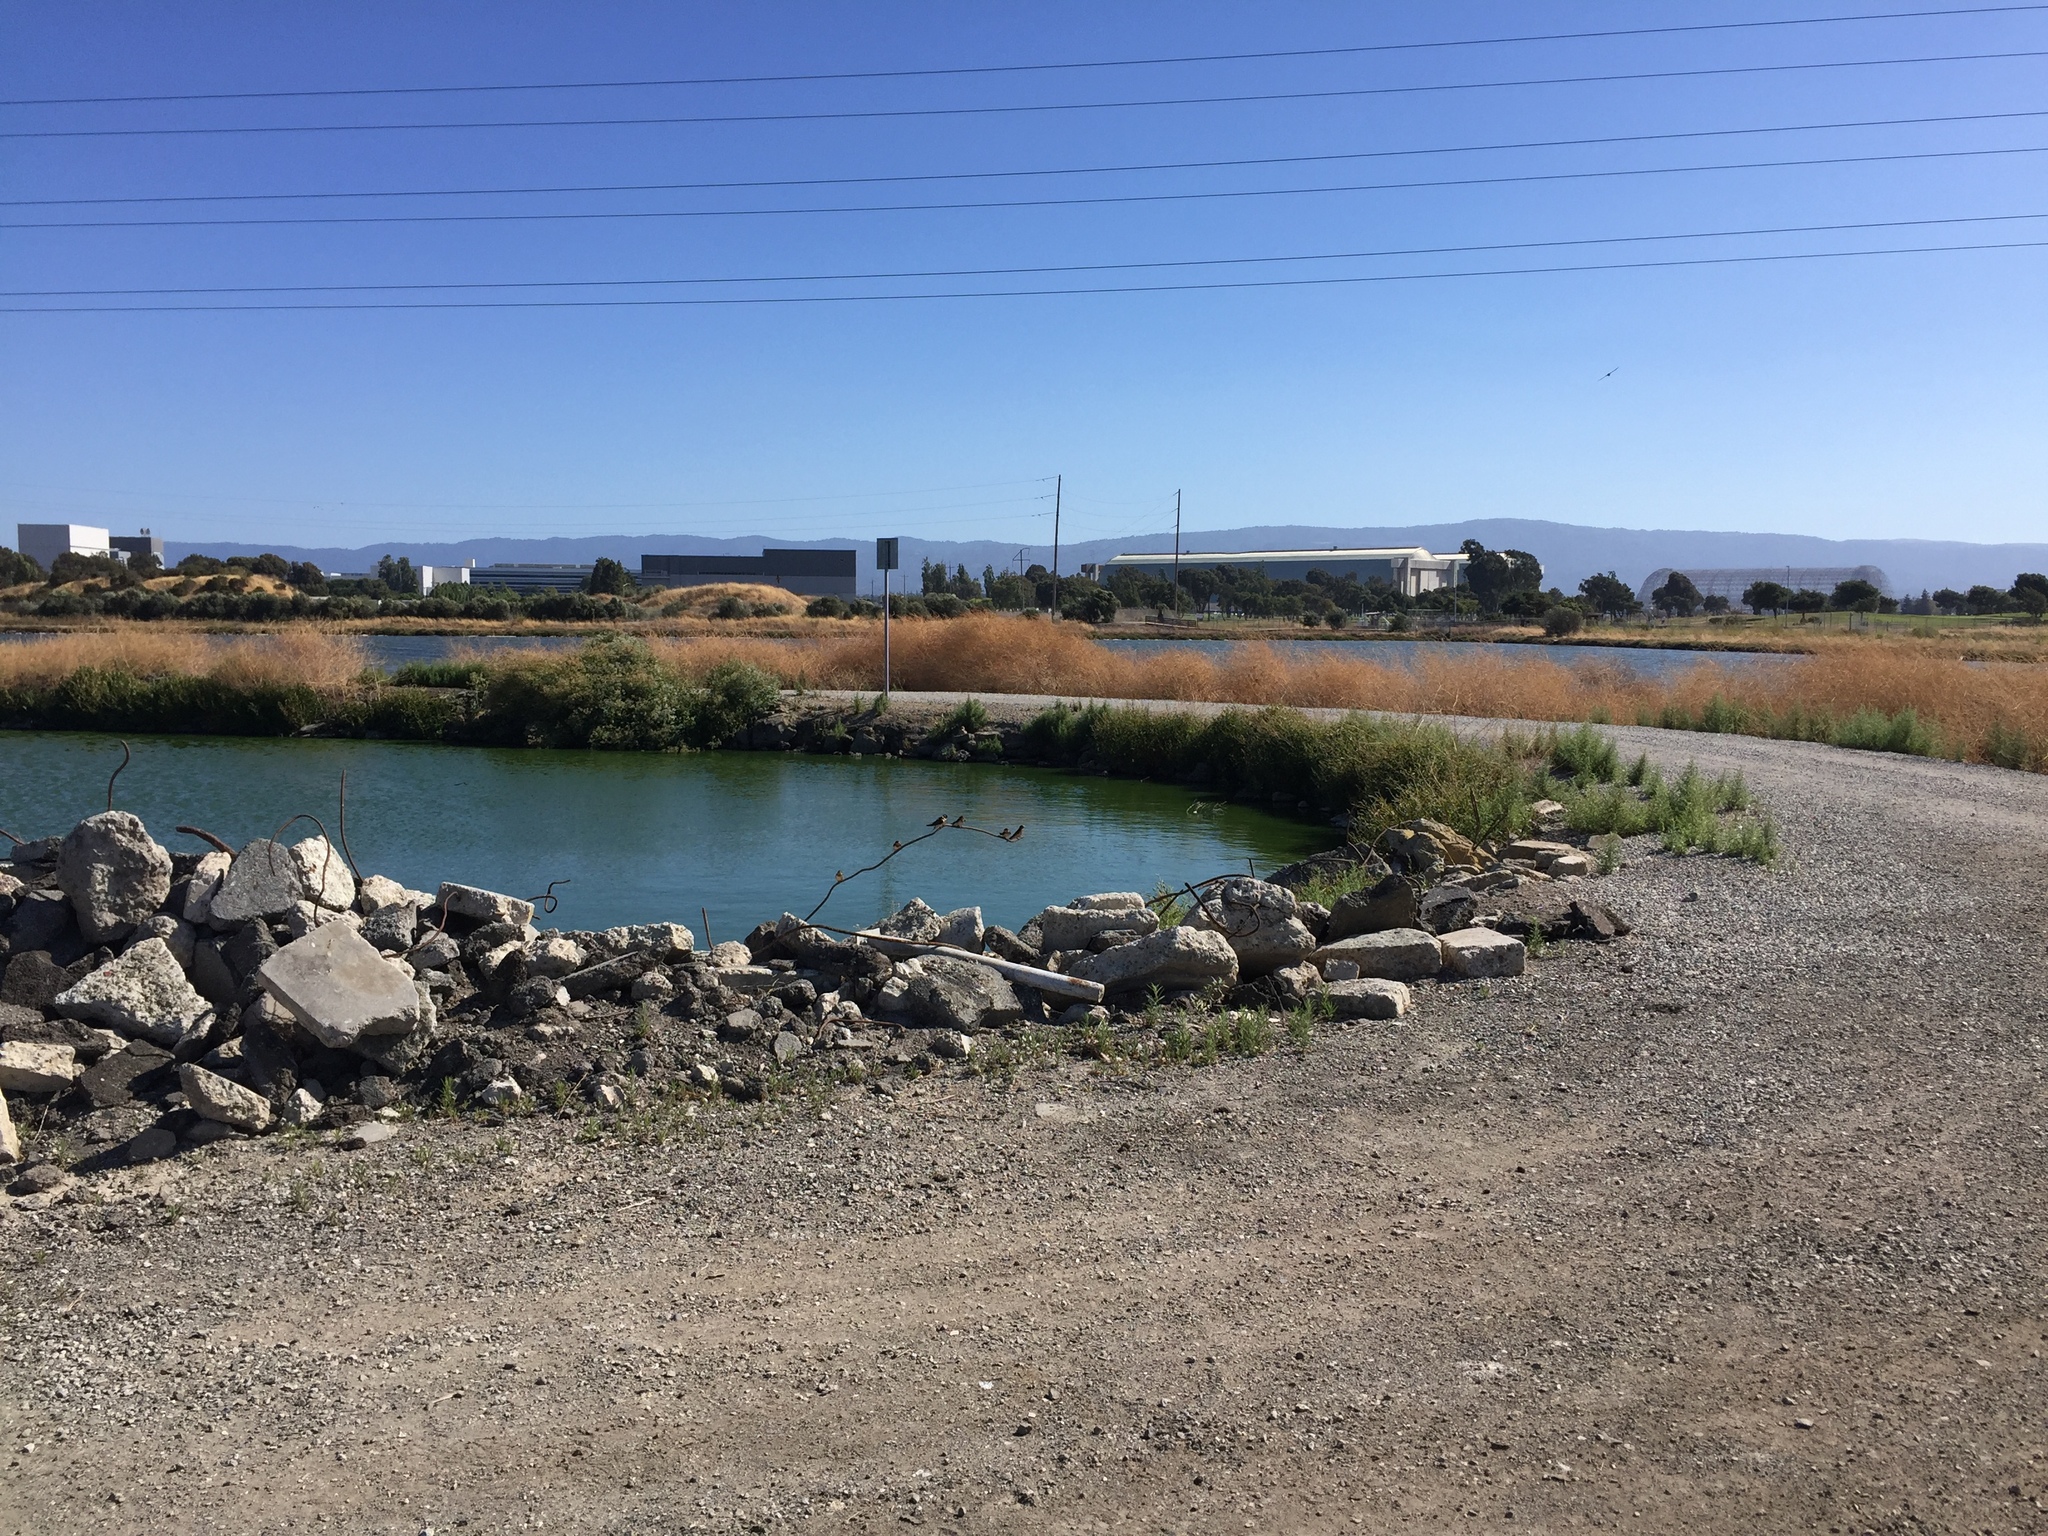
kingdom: Animalia
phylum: Chordata
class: Aves
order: Passeriformes
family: Hirundinidae
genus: Hirundo
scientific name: Hirundo rustica
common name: Barn swallow
